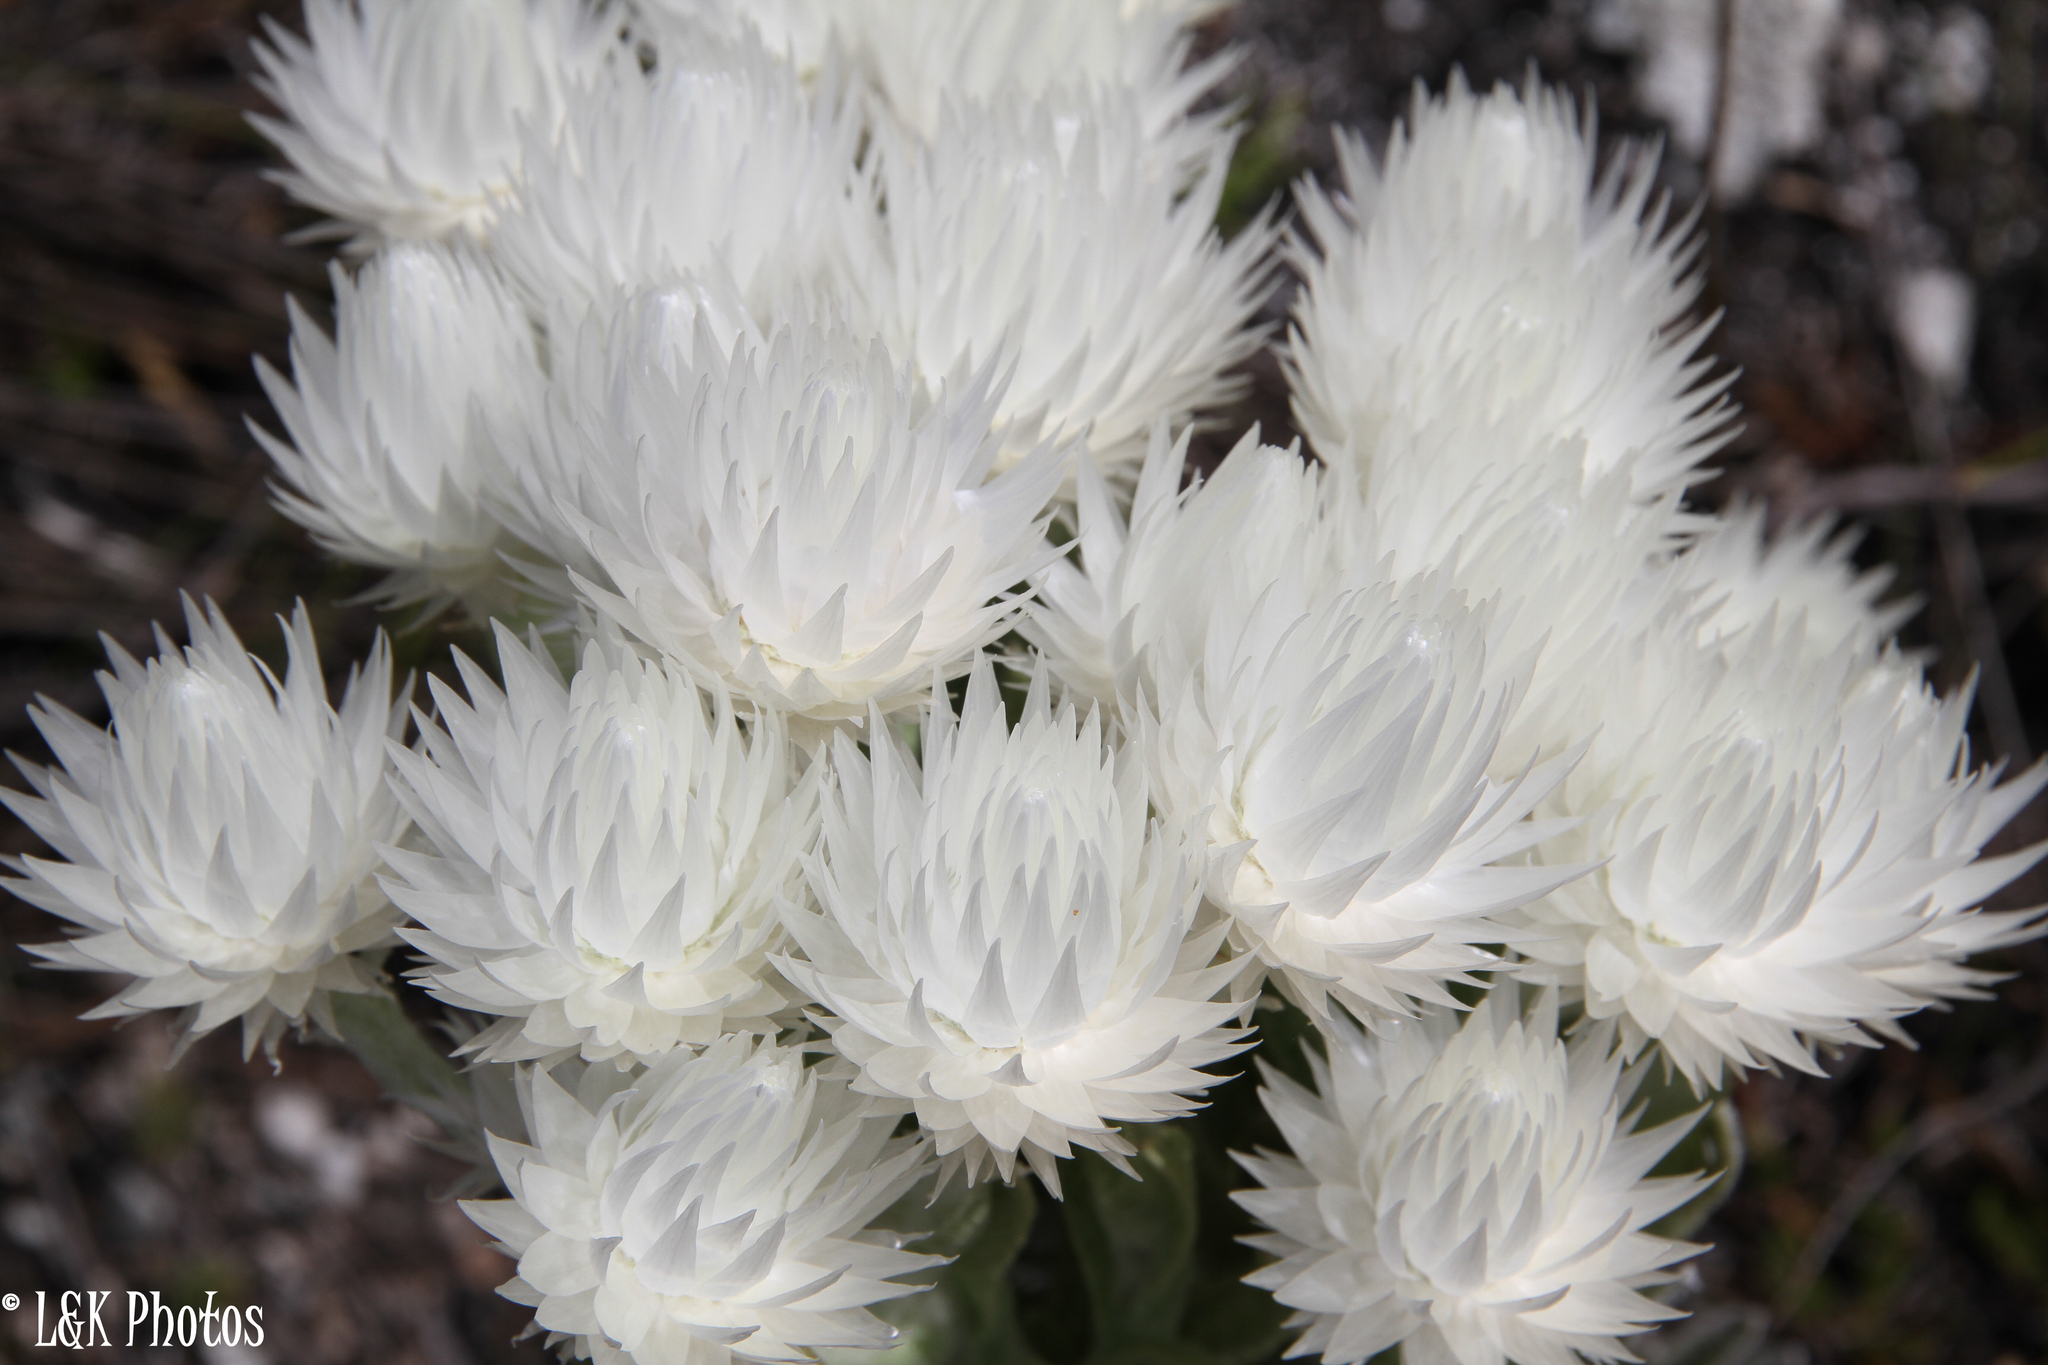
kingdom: Plantae
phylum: Tracheophyta
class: Magnoliopsida
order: Asterales
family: Asteraceae
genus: Syncarpha
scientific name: Syncarpha vestita
